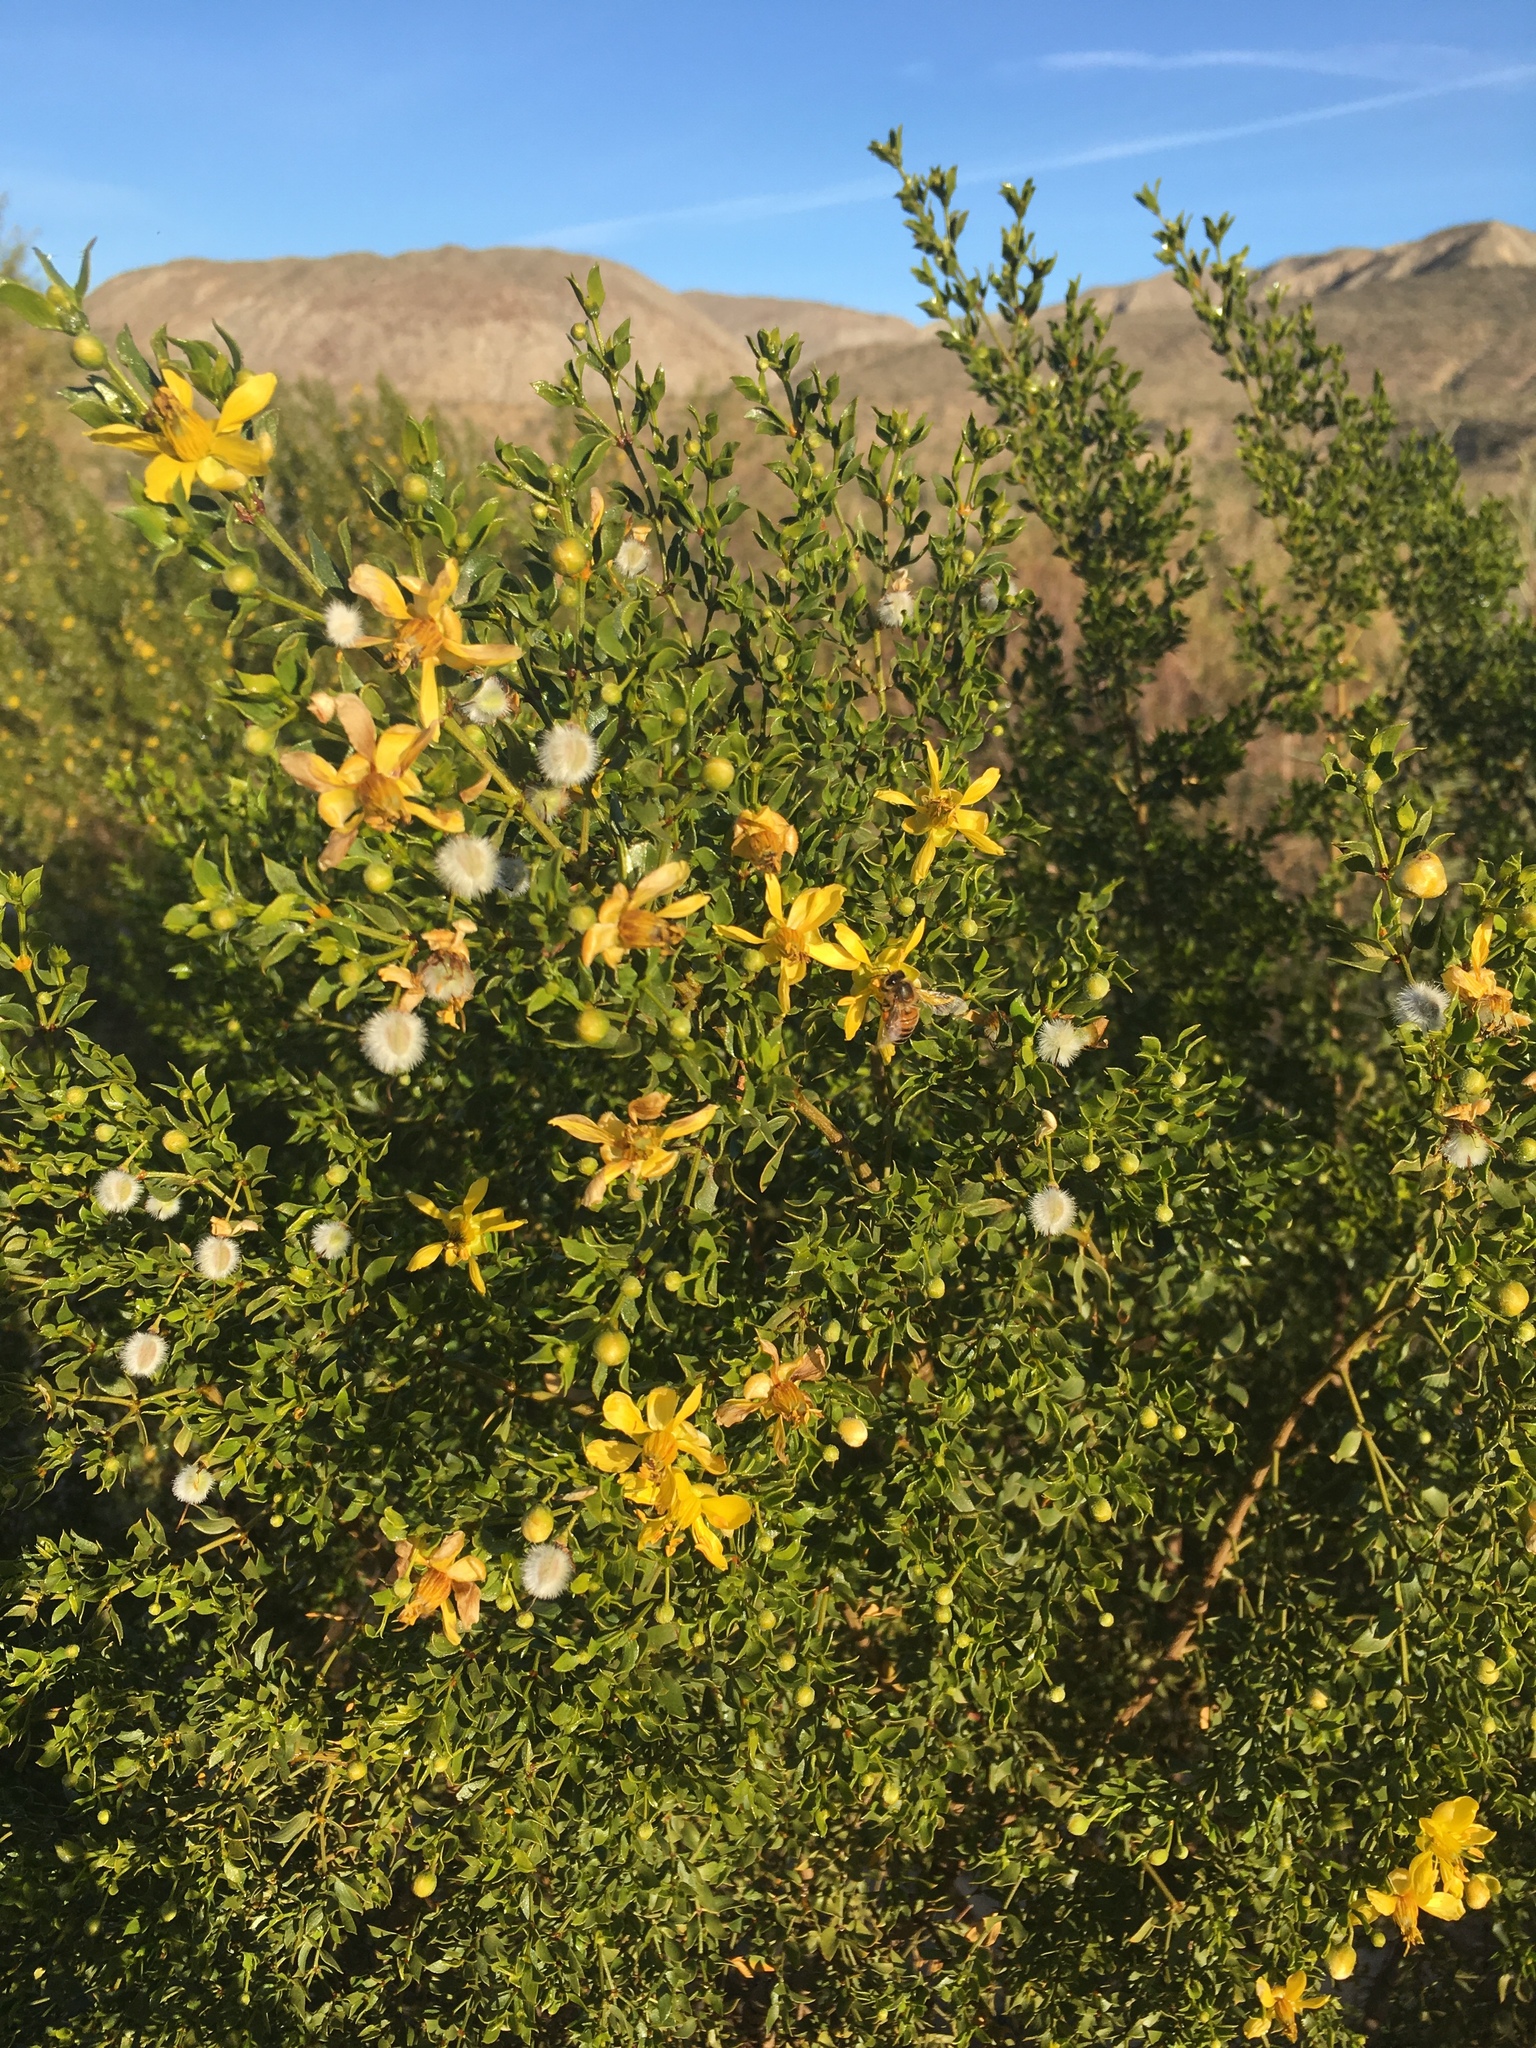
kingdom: Plantae
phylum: Tracheophyta
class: Magnoliopsida
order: Zygophyllales
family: Zygophyllaceae
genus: Larrea
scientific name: Larrea tridentata
